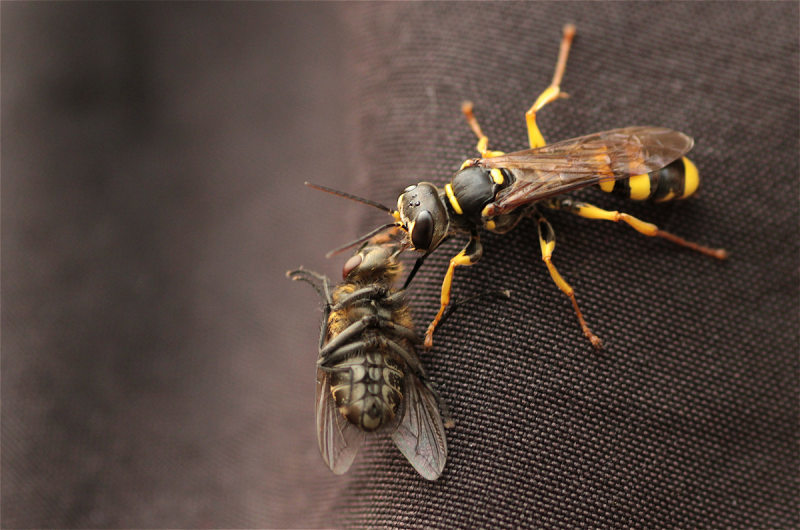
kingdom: Animalia
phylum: Arthropoda
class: Insecta
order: Hymenoptera
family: Crabronidae
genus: Mellinus
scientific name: Mellinus arvensis
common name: Field digger wasp
